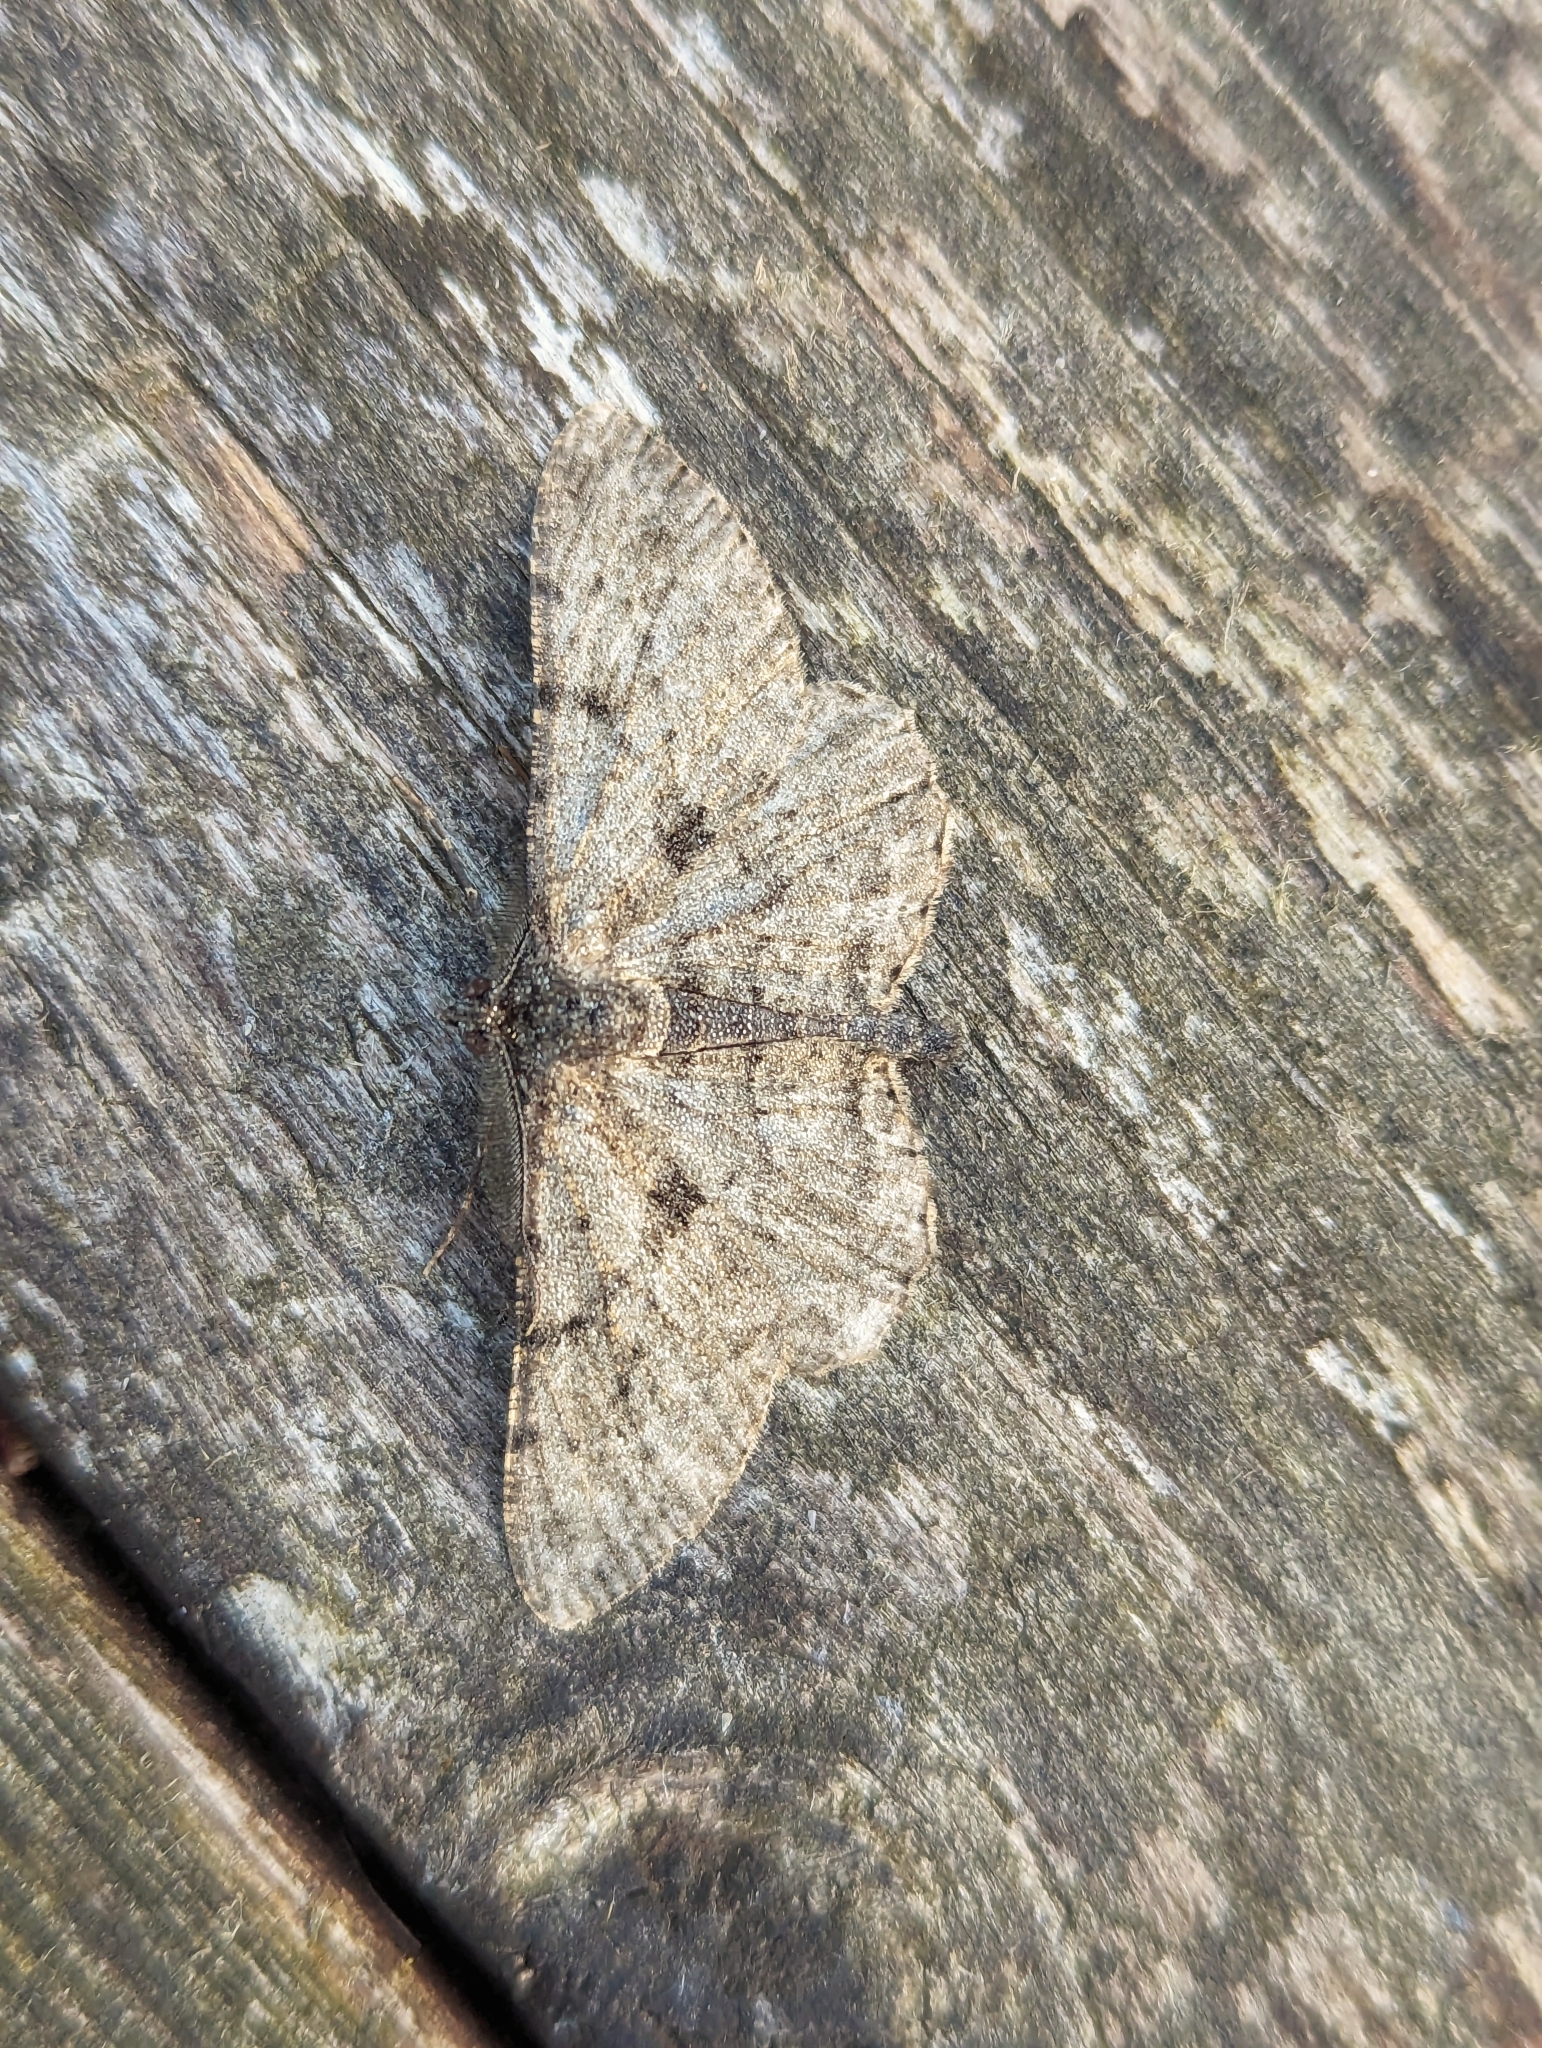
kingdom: Animalia
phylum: Arthropoda
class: Insecta
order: Lepidoptera
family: Geometridae
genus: Peribatodes
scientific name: Peribatodes rhomboidaria
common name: Willow beauty
